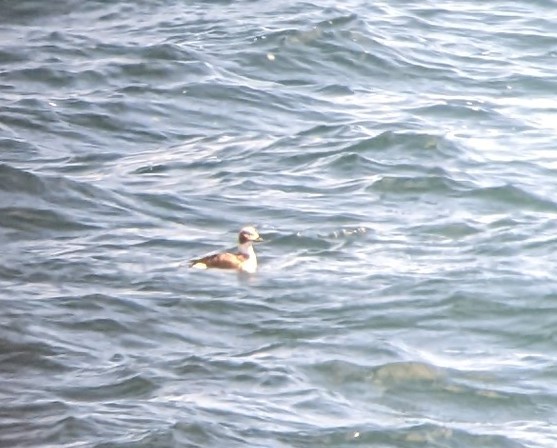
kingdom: Animalia
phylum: Chordata
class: Aves
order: Anseriformes
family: Anatidae
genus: Clangula
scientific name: Clangula hyemalis
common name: Long-tailed duck
